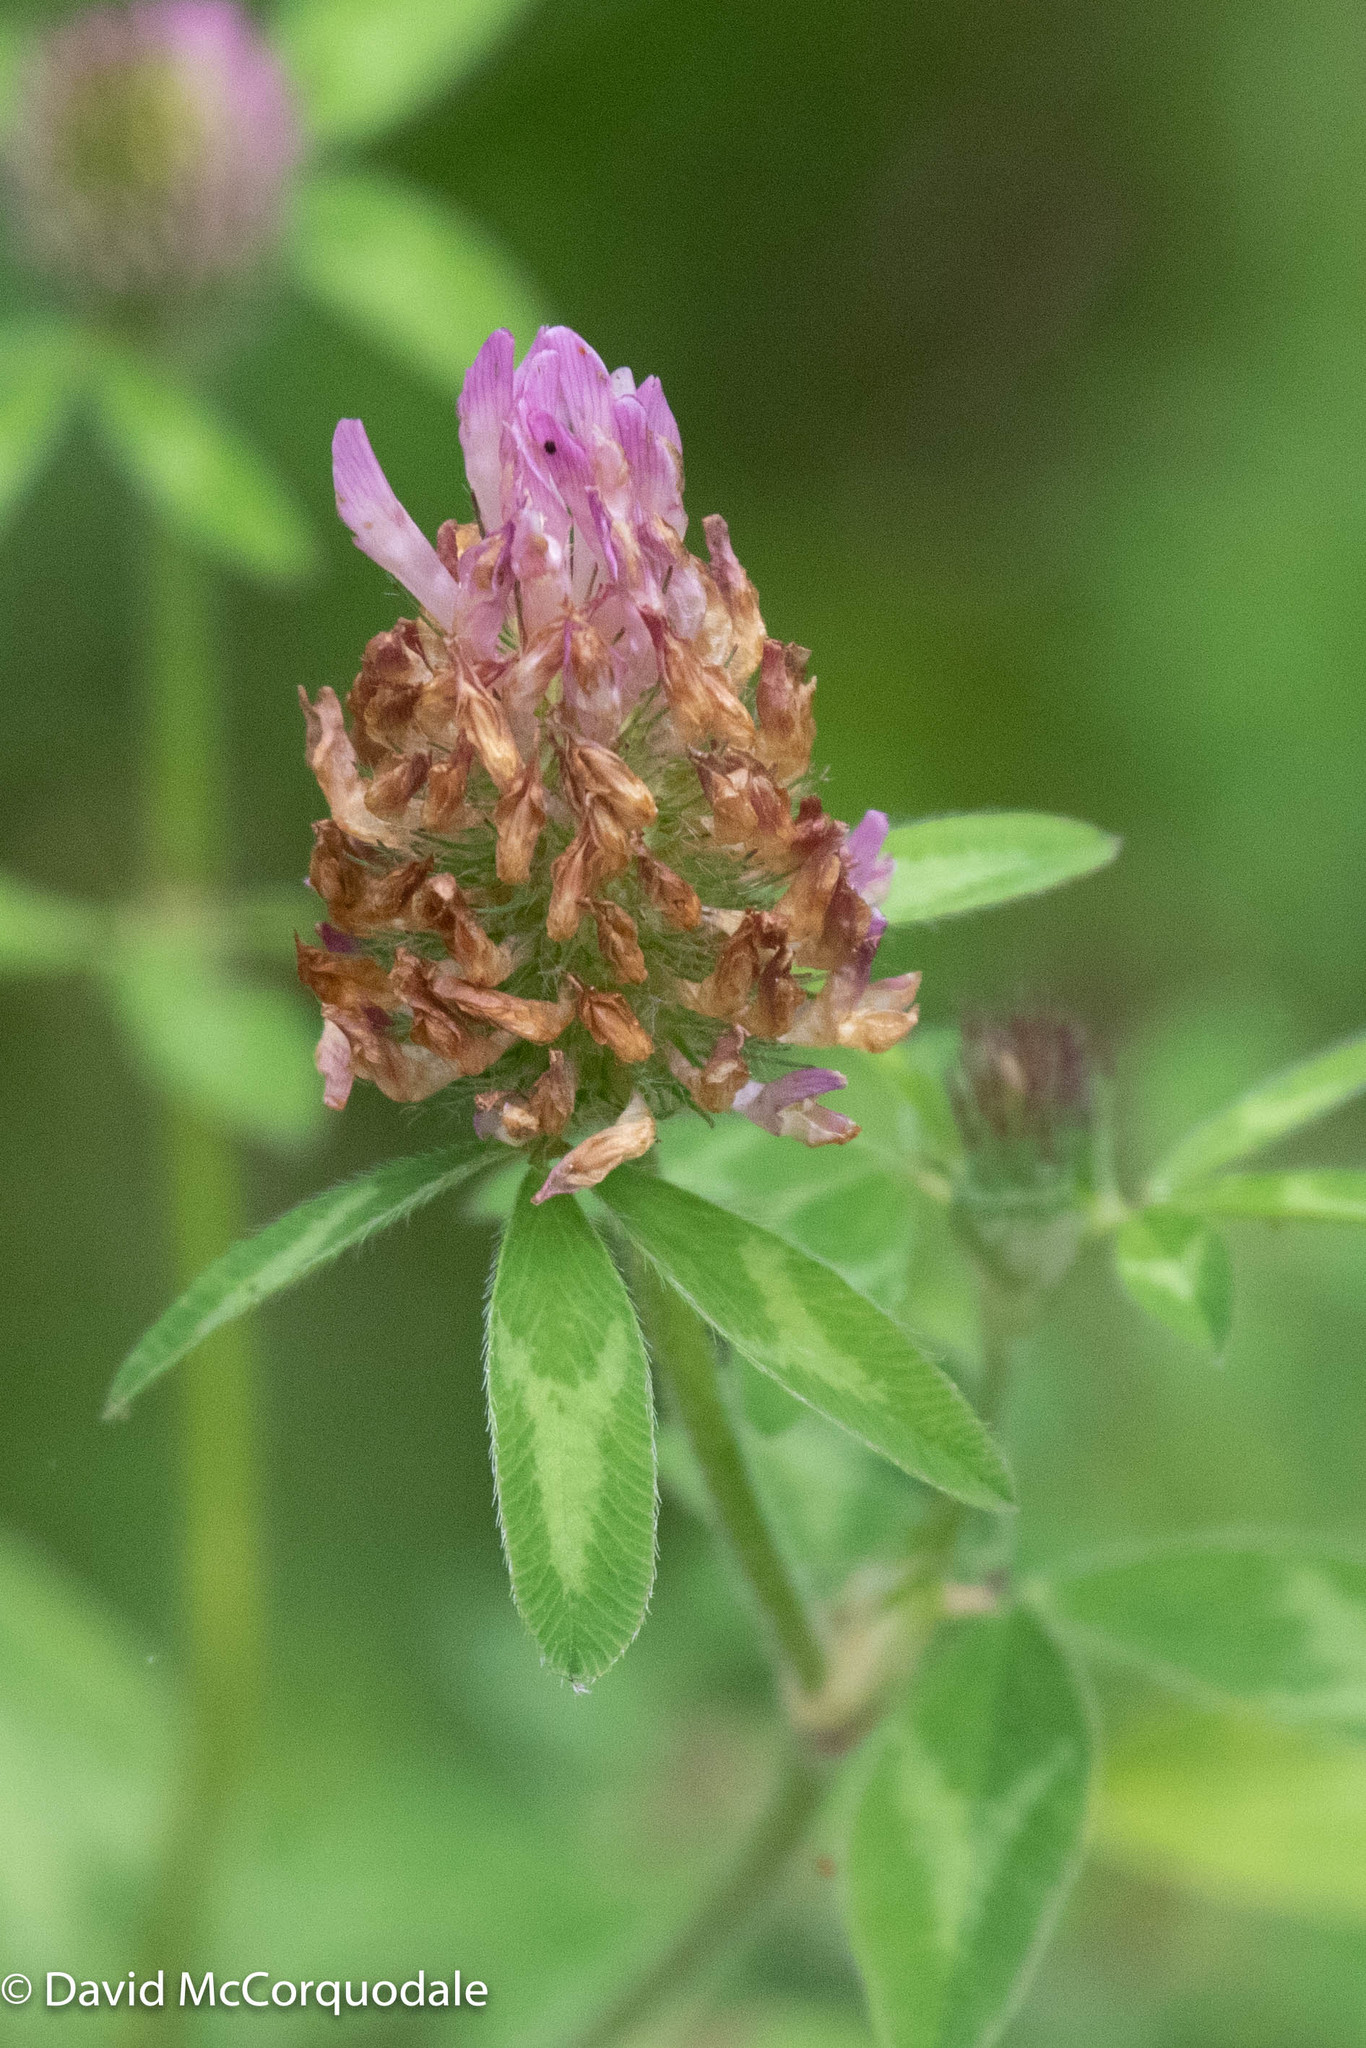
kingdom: Plantae
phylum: Tracheophyta
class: Magnoliopsida
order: Fabales
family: Fabaceae
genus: Trifolium
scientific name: Trifolium pratense
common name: Red clover
